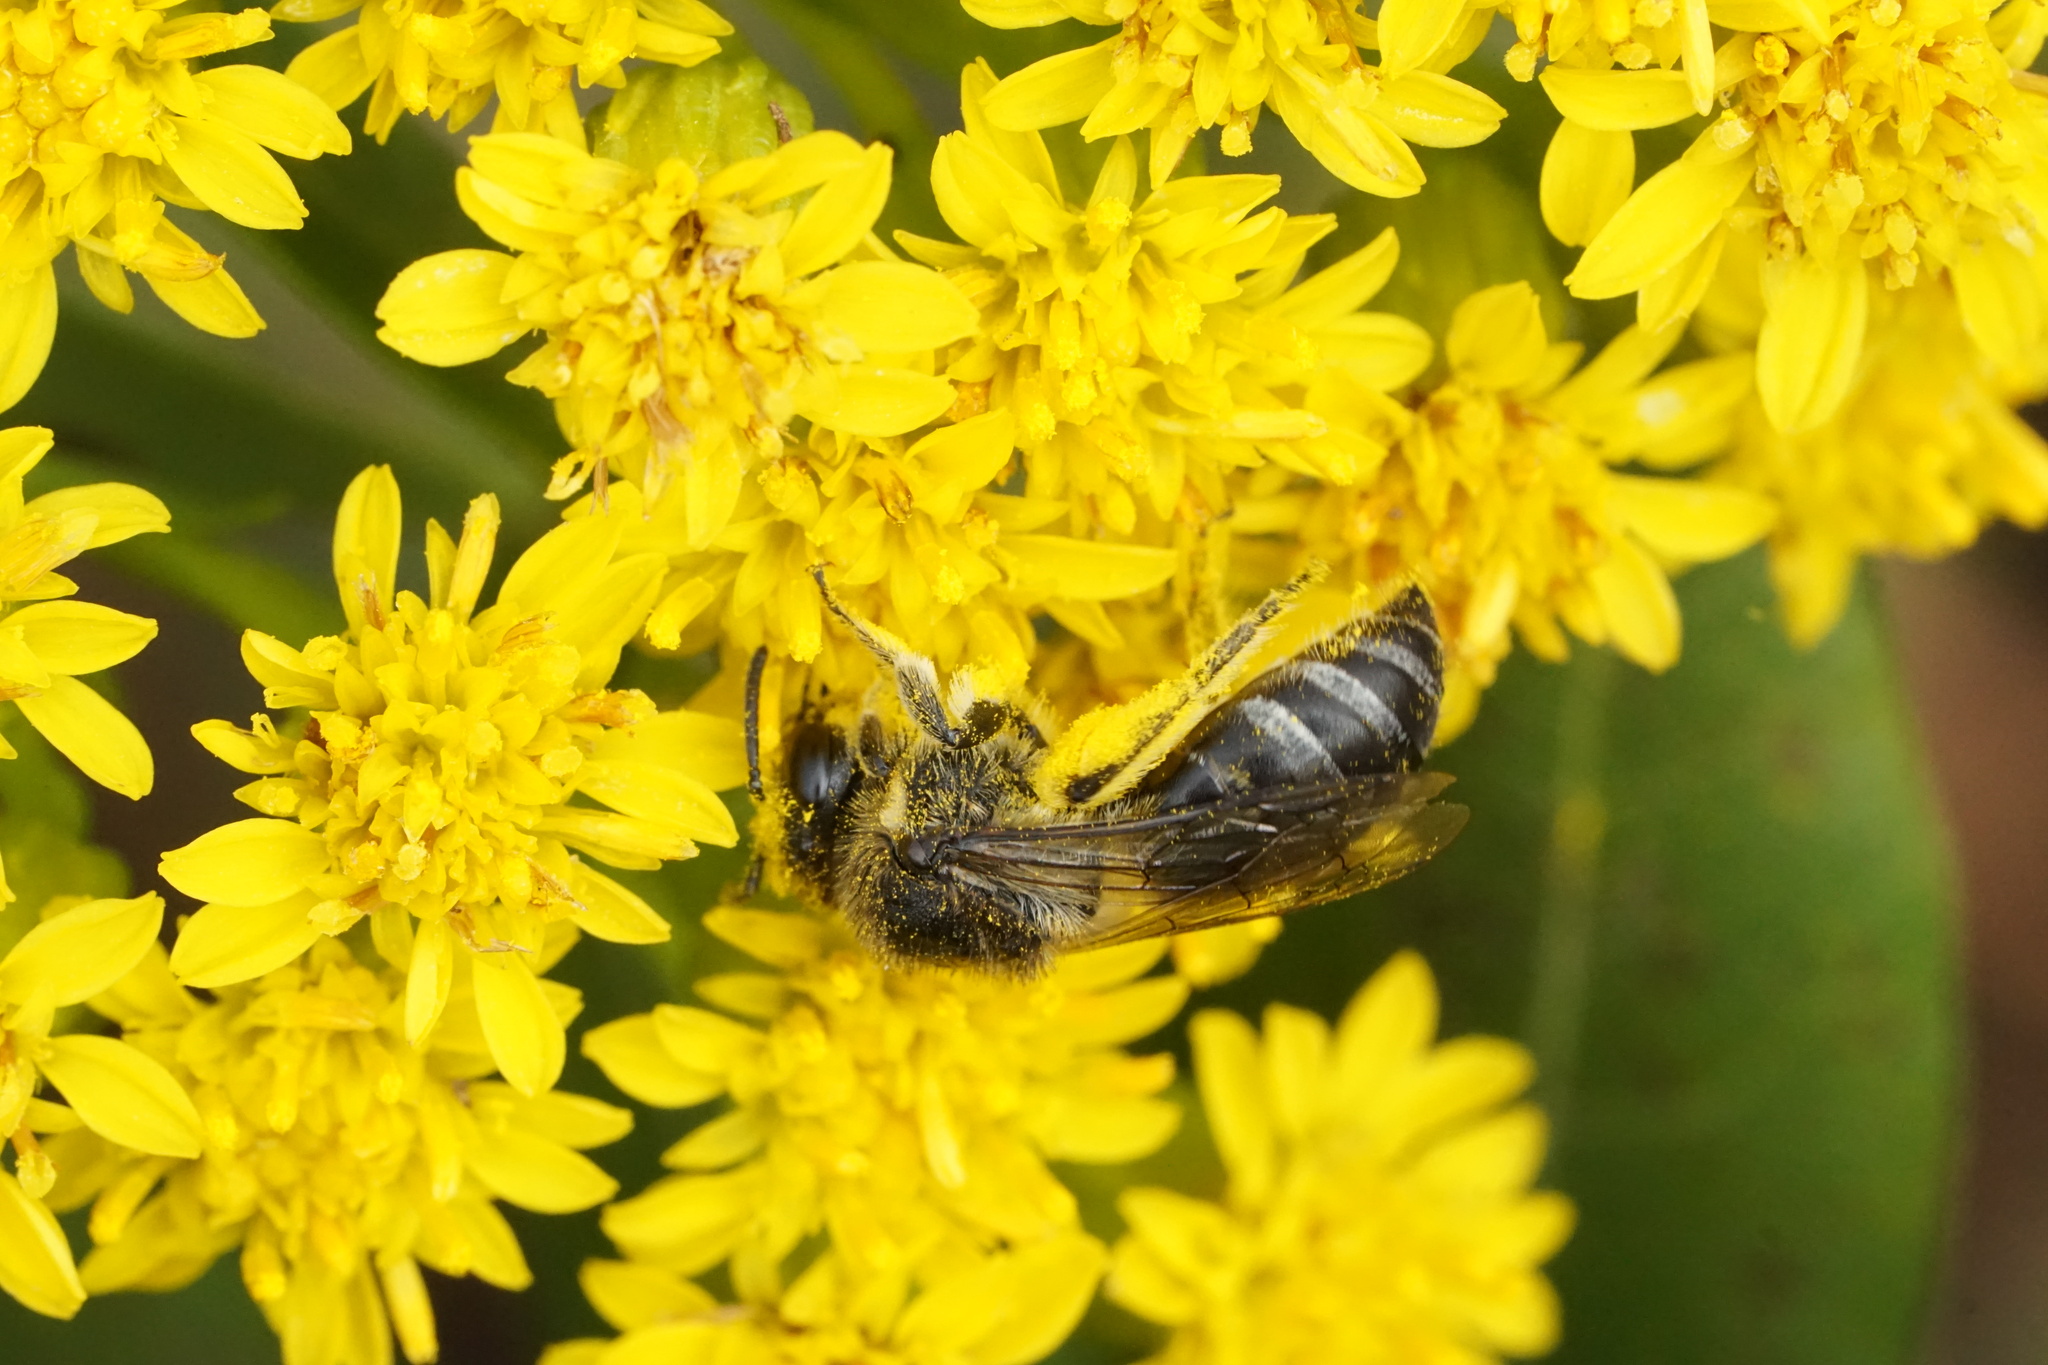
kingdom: Animalia
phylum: Arthropoda
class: Insecta
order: Hymenoptera
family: Colletidae
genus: Colletes
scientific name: Colletes simulans
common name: Spine-shouldered cellophane bee
